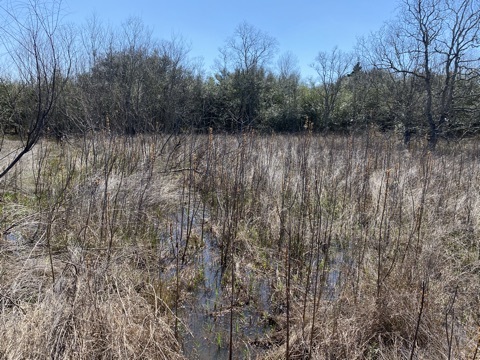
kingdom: Plantae
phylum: Tracheophyta
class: Magnoliopsida
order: Sapindales
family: Simaroubaceae
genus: Leitneria
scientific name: Leitneria pilosa
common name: Western corkwood
